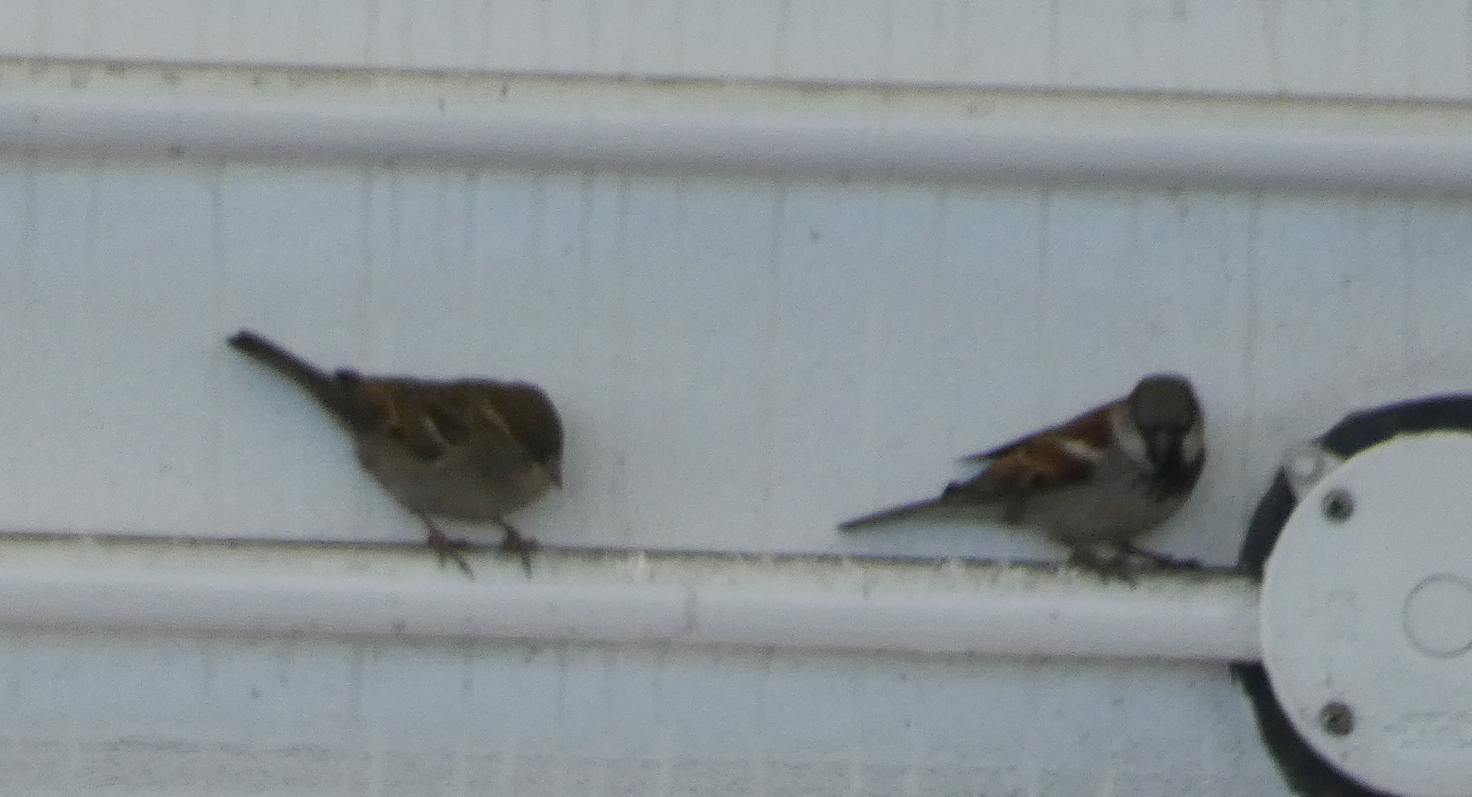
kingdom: Animalia
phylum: Chordata
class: Aves
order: Passeriformes
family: Passeridae
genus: Passer
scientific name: Passer domesticus
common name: House sparrow
